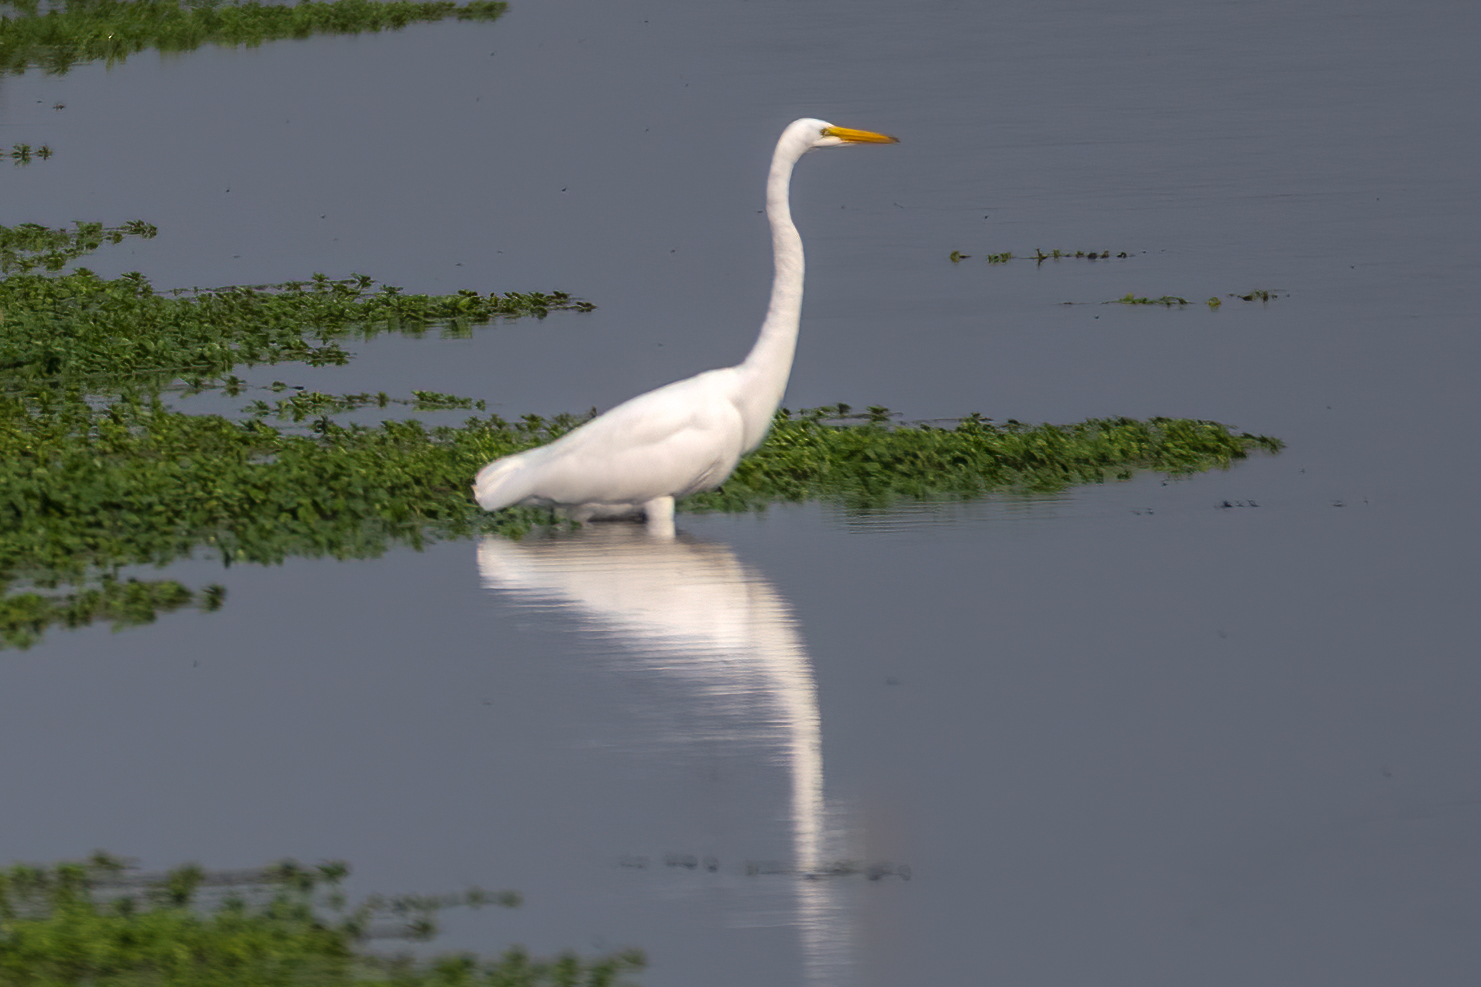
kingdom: Animalia
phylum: Chordata
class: Aves
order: Pelecaniformes
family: Ardeidae
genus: Ardea
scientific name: Ardea alba
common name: Great egret
